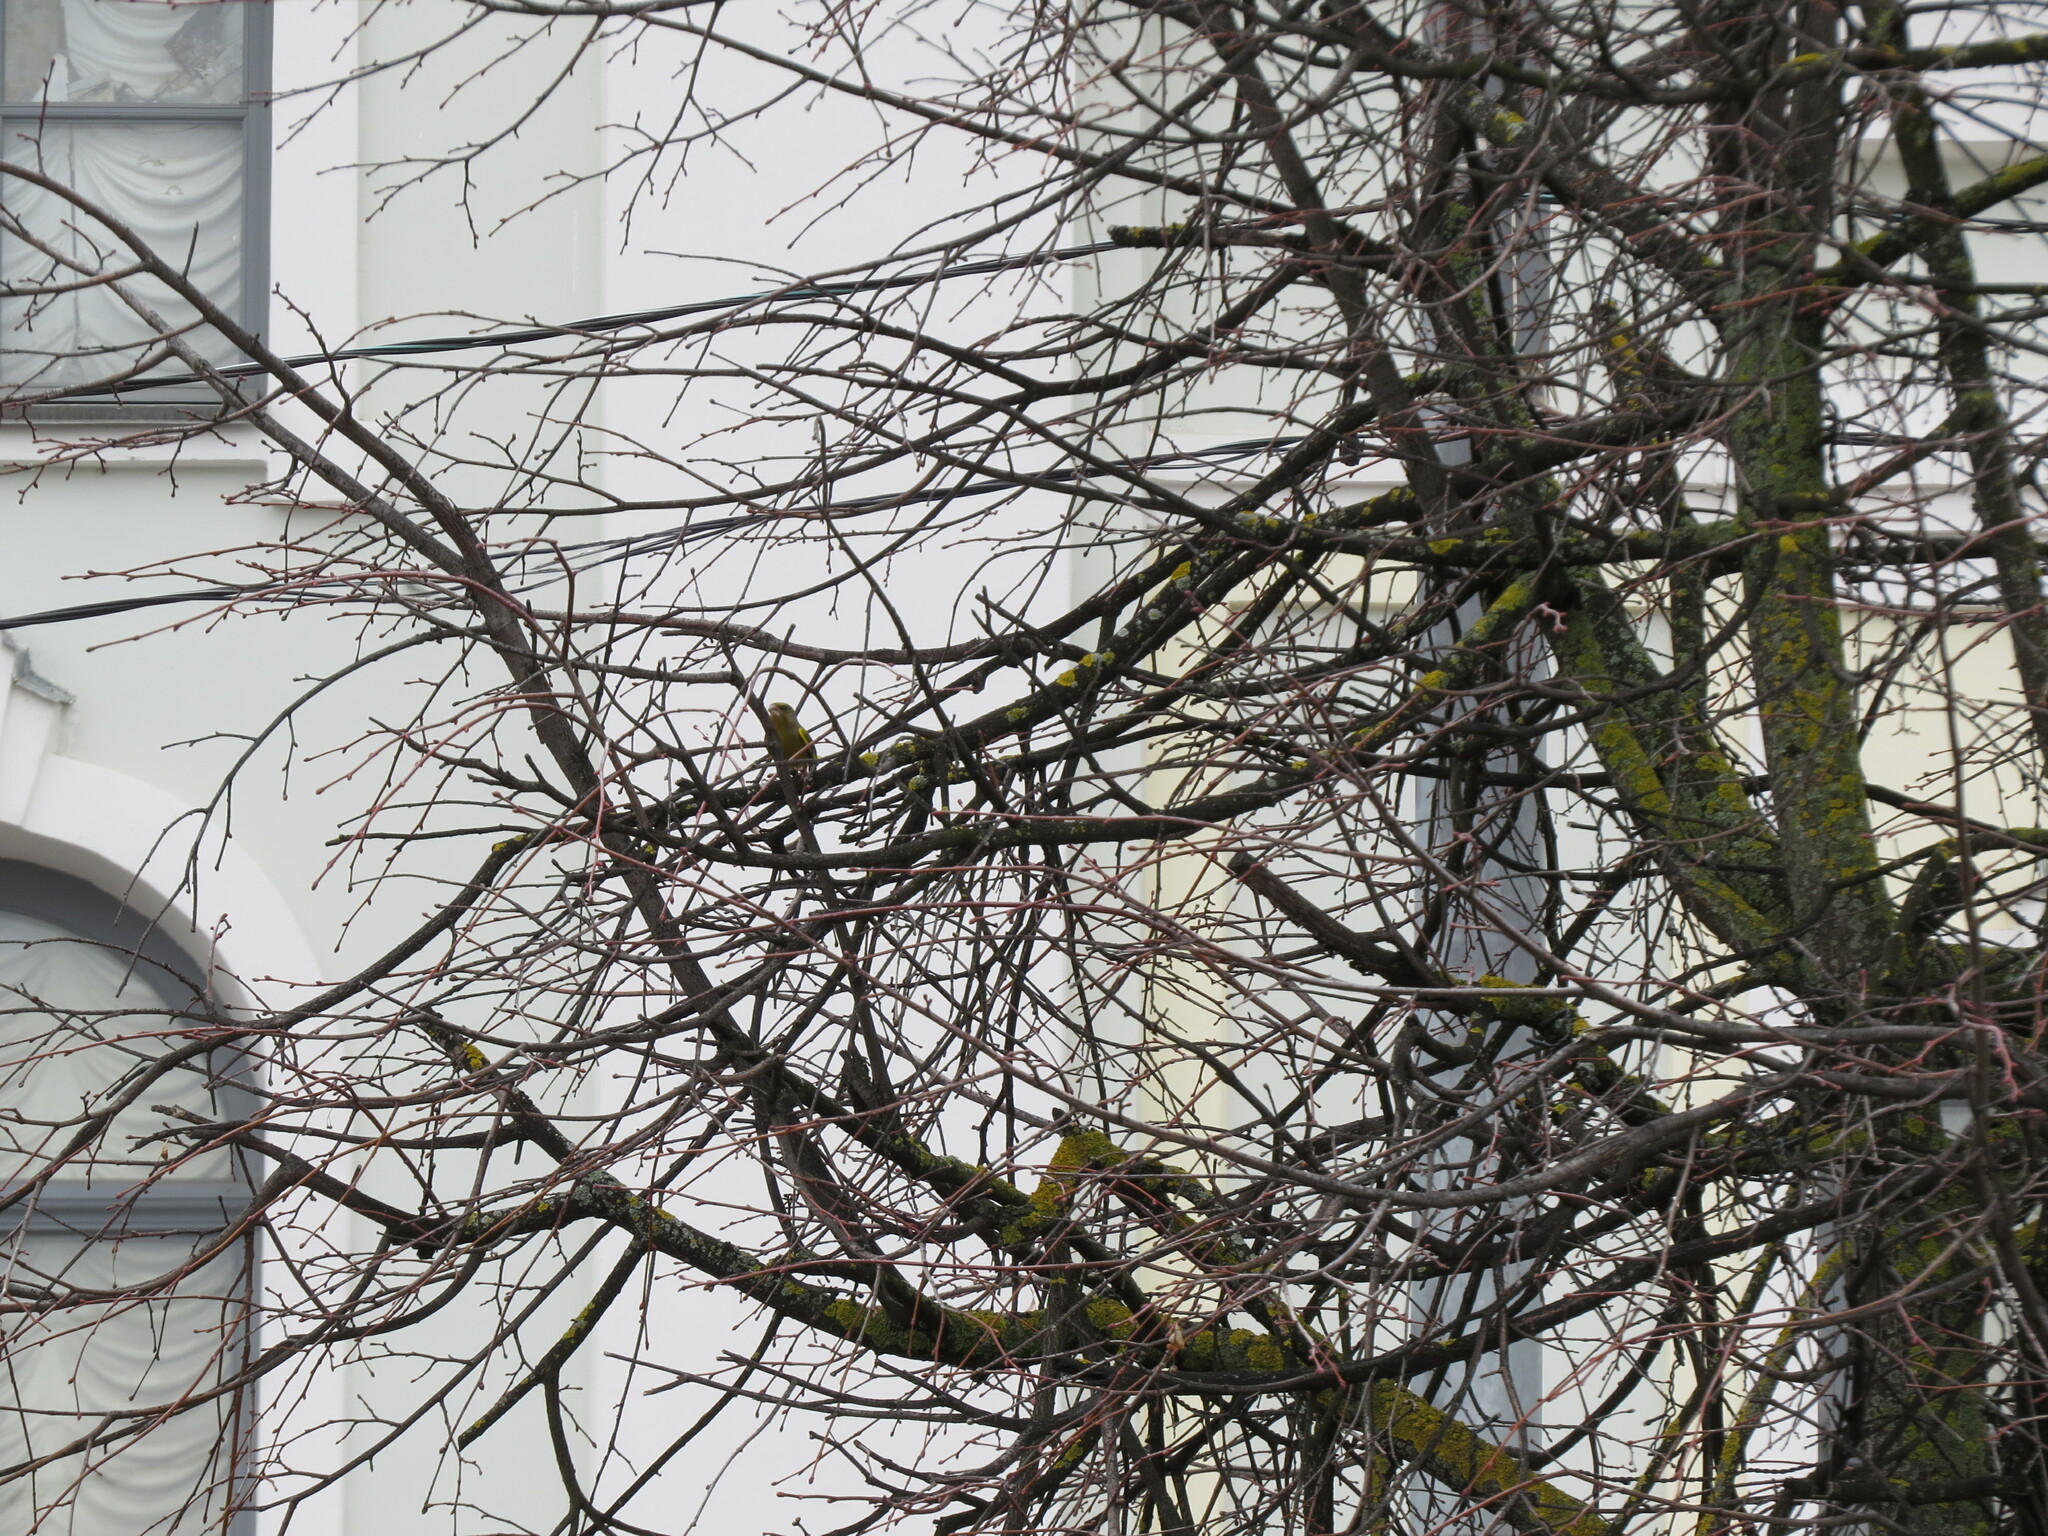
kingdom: Plantae
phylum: Tracheophyta
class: Liliopsida
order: Poales
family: Poaceae
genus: Chloris
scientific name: Chloris chloris
